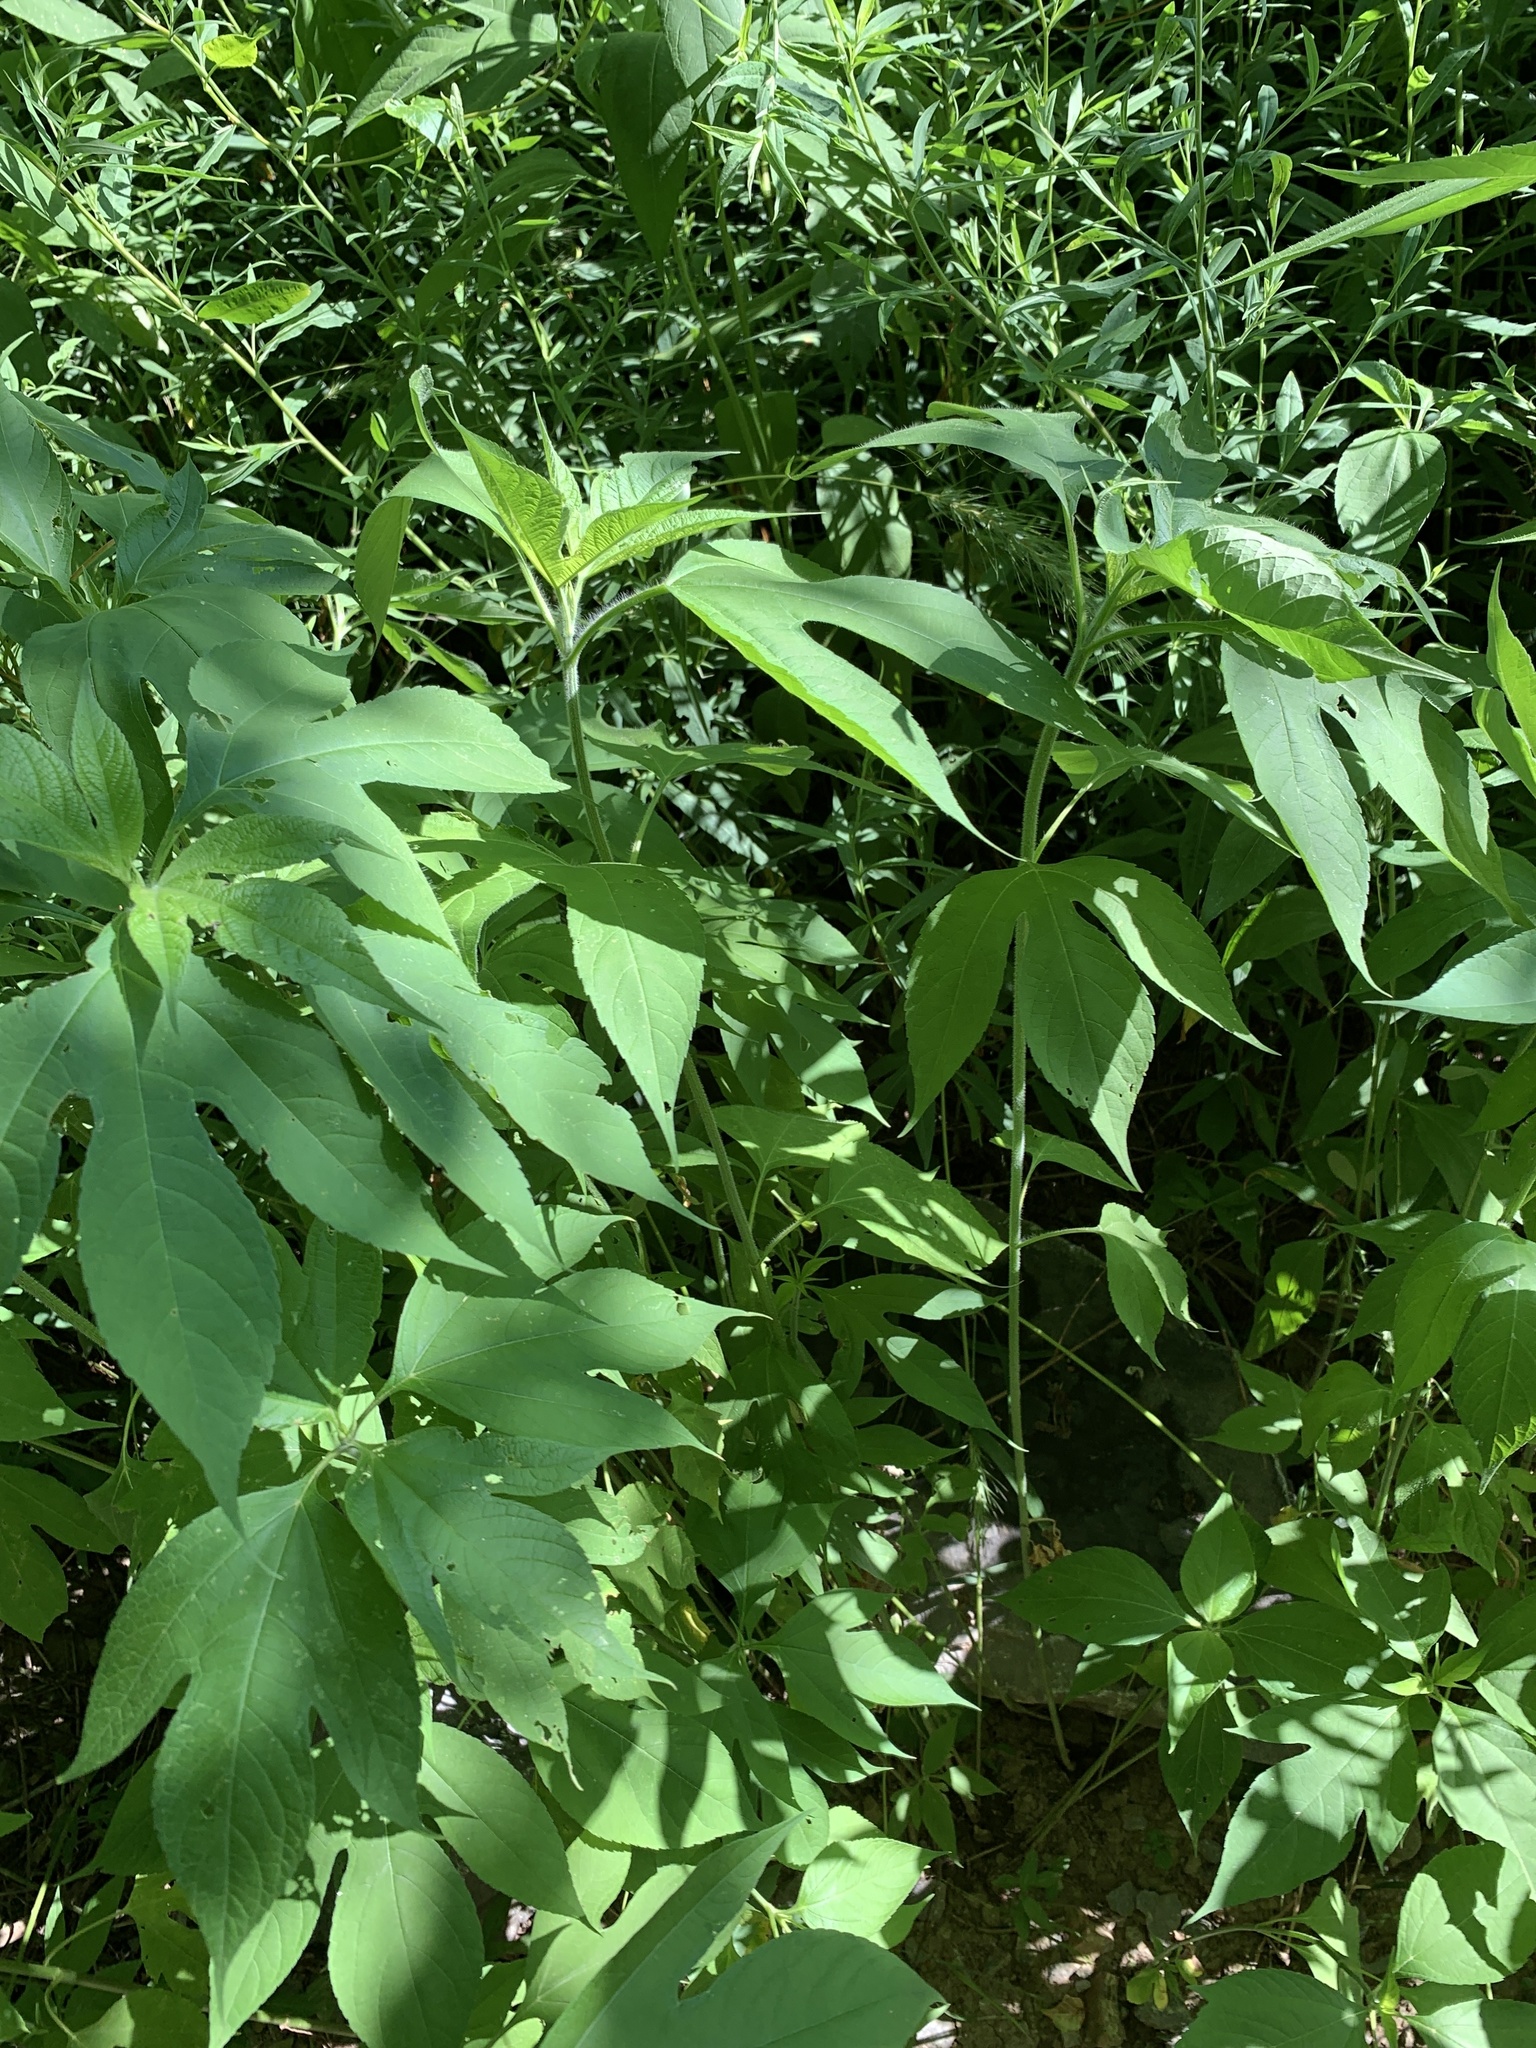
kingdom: Plantae
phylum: Tracheophyta
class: Magnoliopsida
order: Asterales
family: Asteraceae
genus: Ambrosia
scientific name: Ambrosia trifida
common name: Giant ragweed
